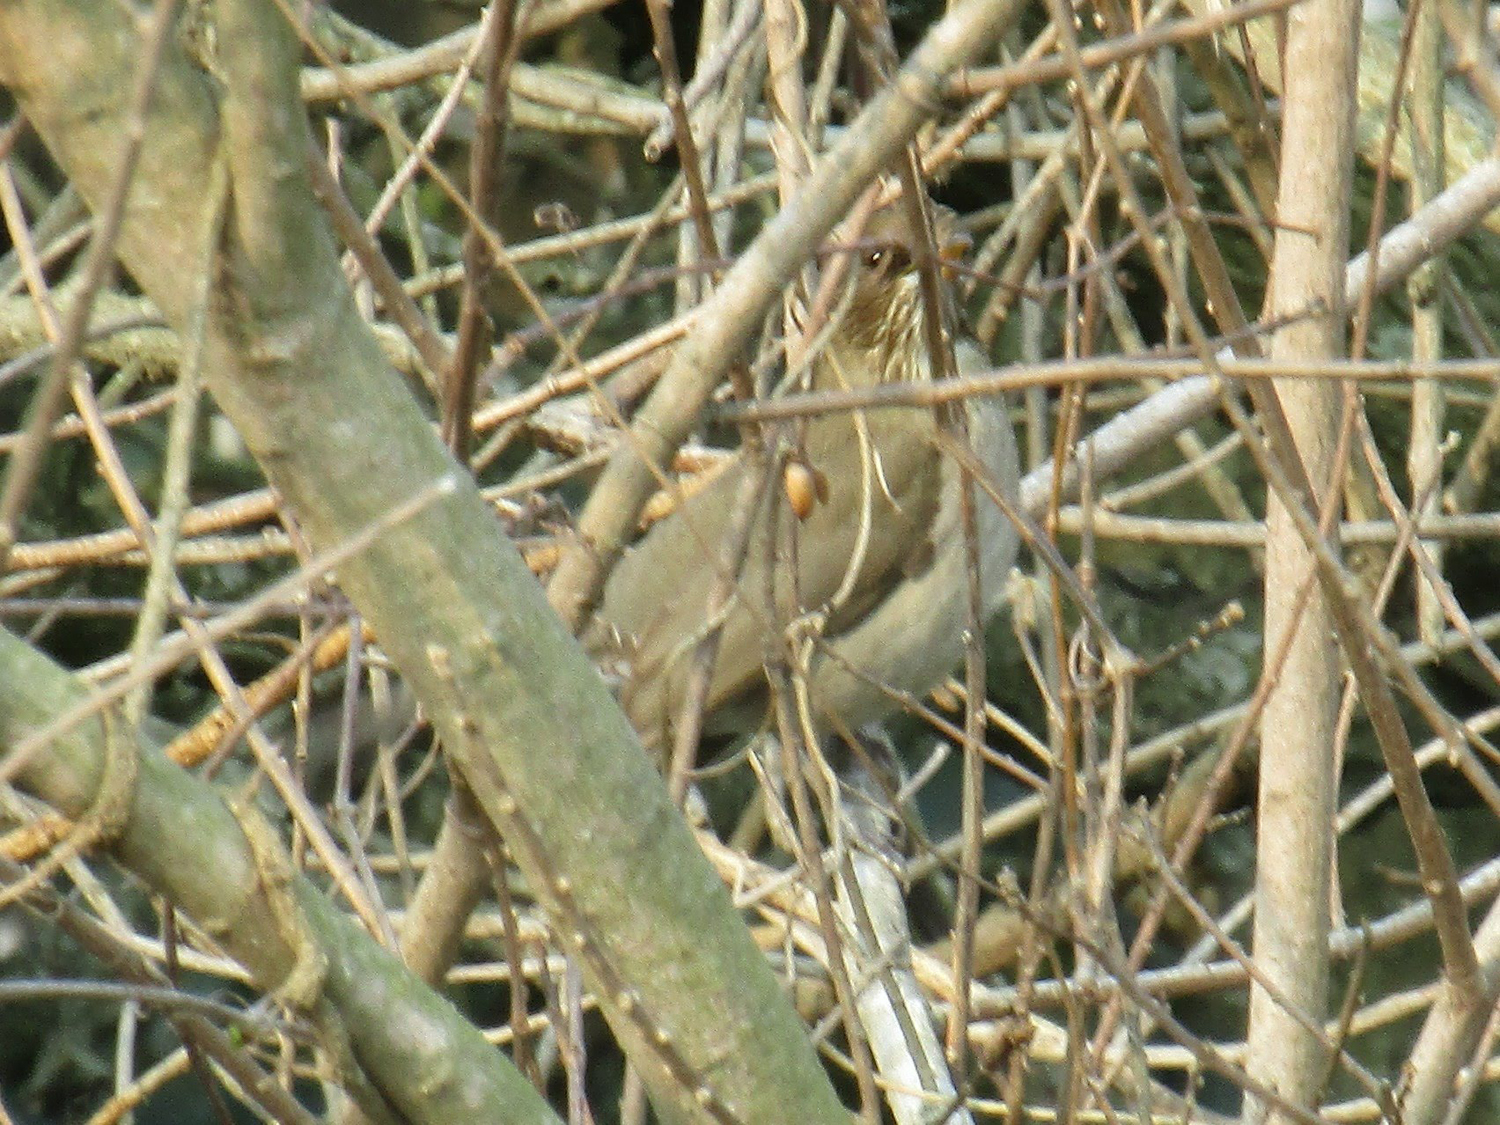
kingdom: Animalia
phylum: Chordata
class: Aves
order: Passeriformes
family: Turdidae
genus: Turdus
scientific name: Turdus amaurochalinus
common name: Creamy-bellied thrush
